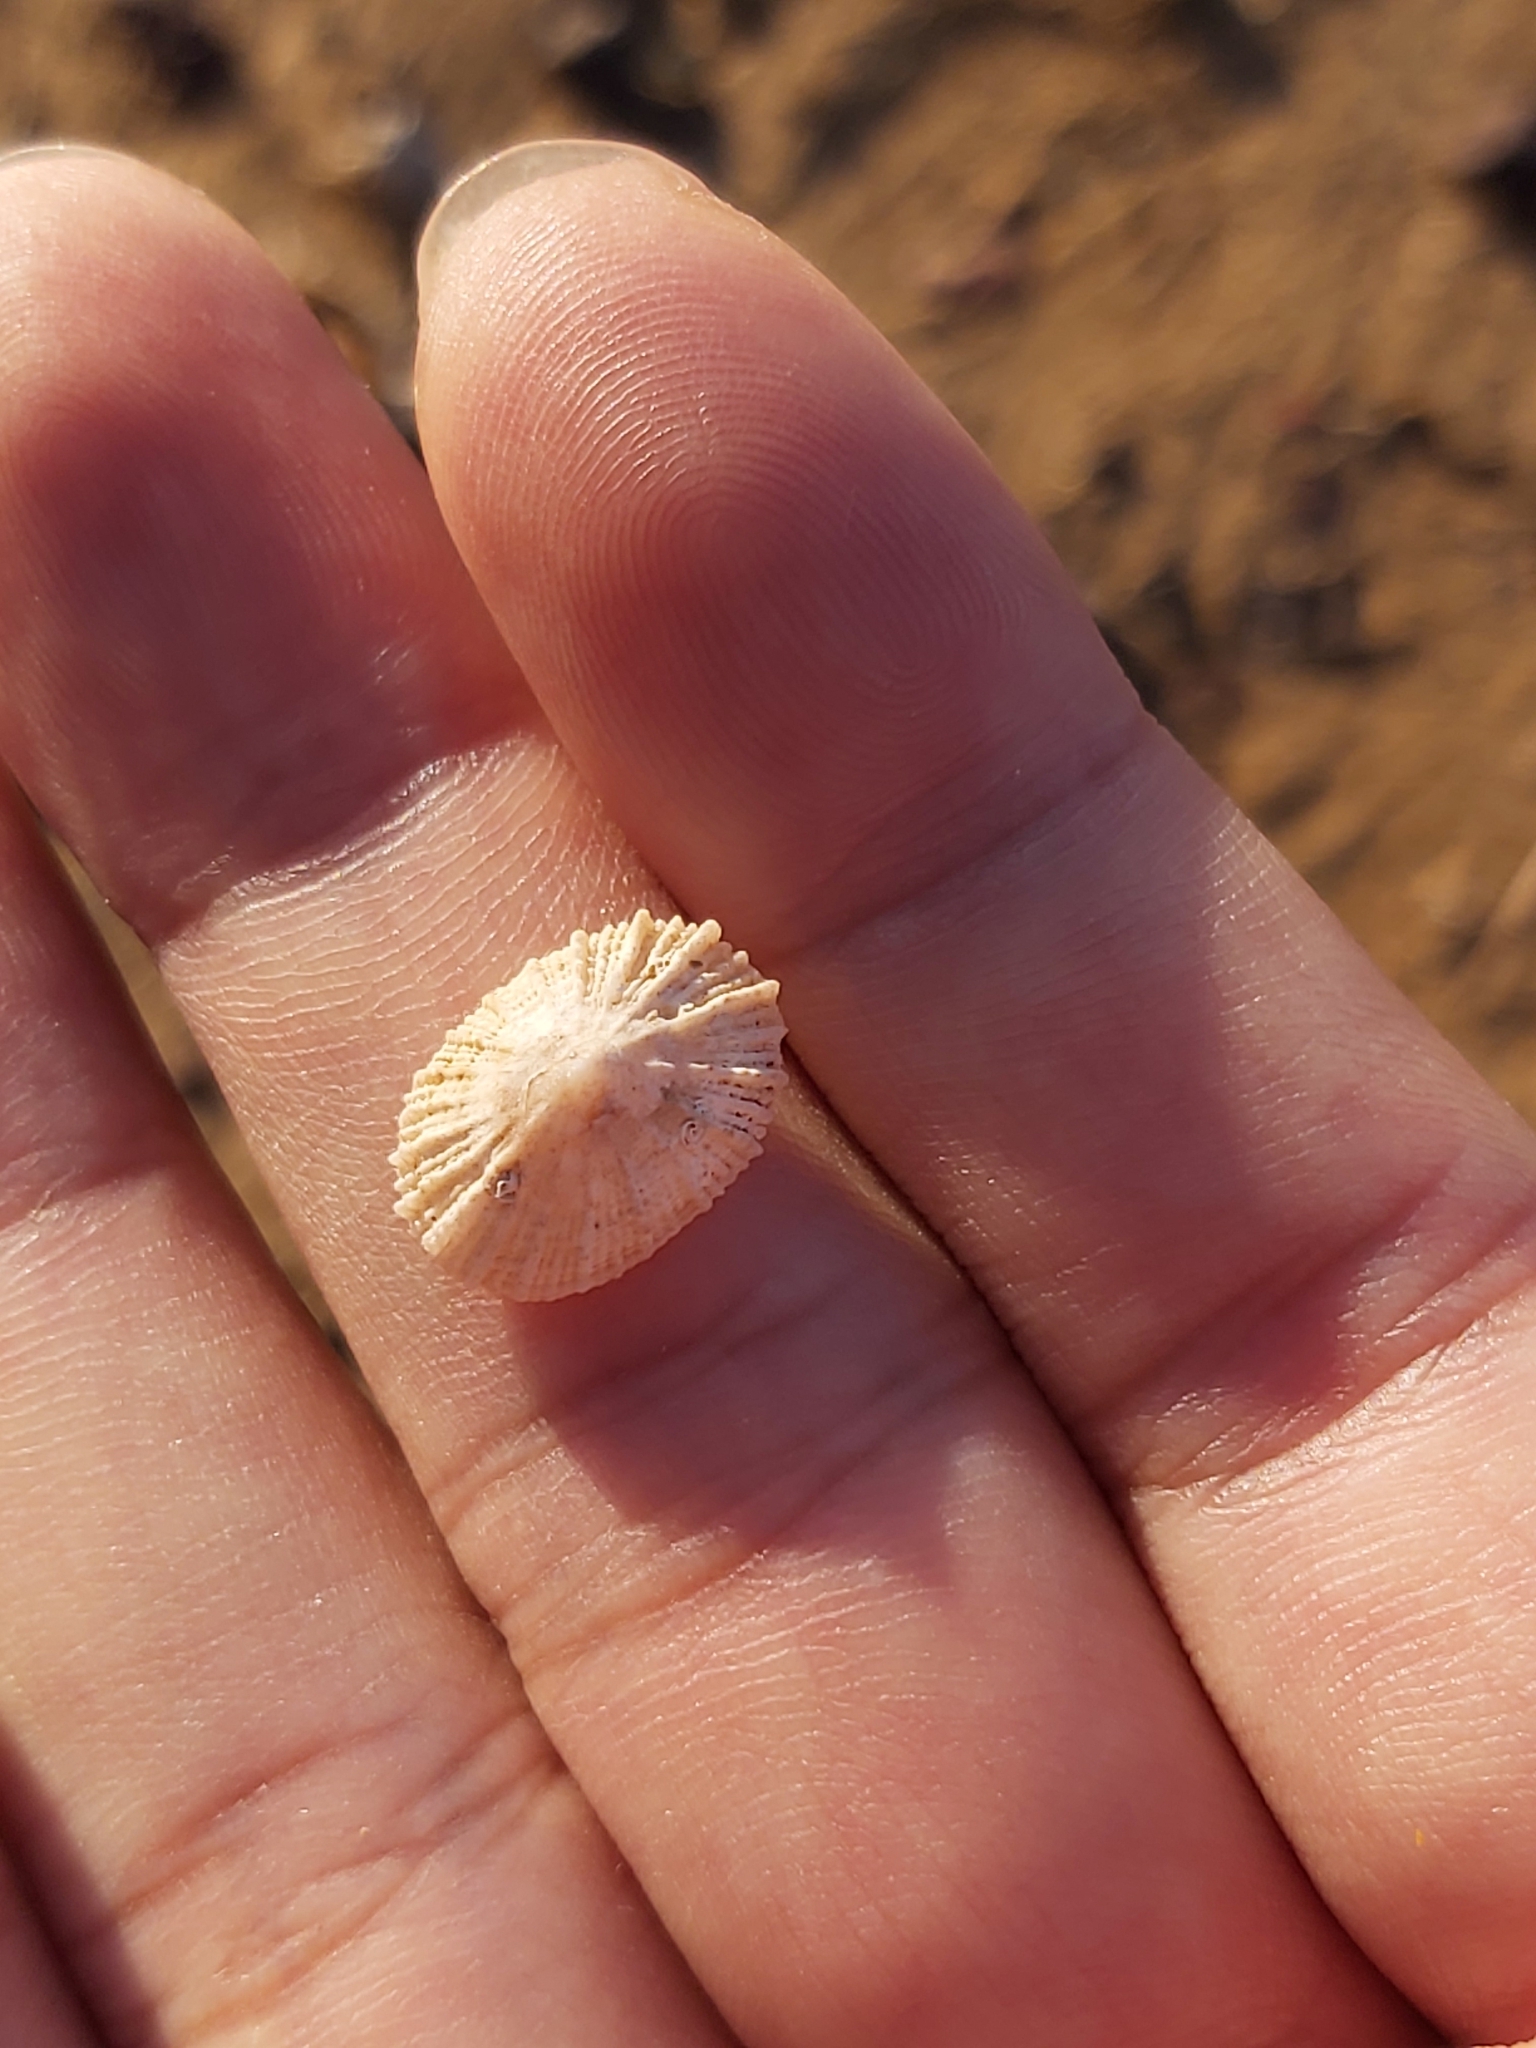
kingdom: Animalia
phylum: Mollusca
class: Gastropoda
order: Lepetellida
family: Fissurellidae
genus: Montfortula
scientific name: Montfortula rugosa
